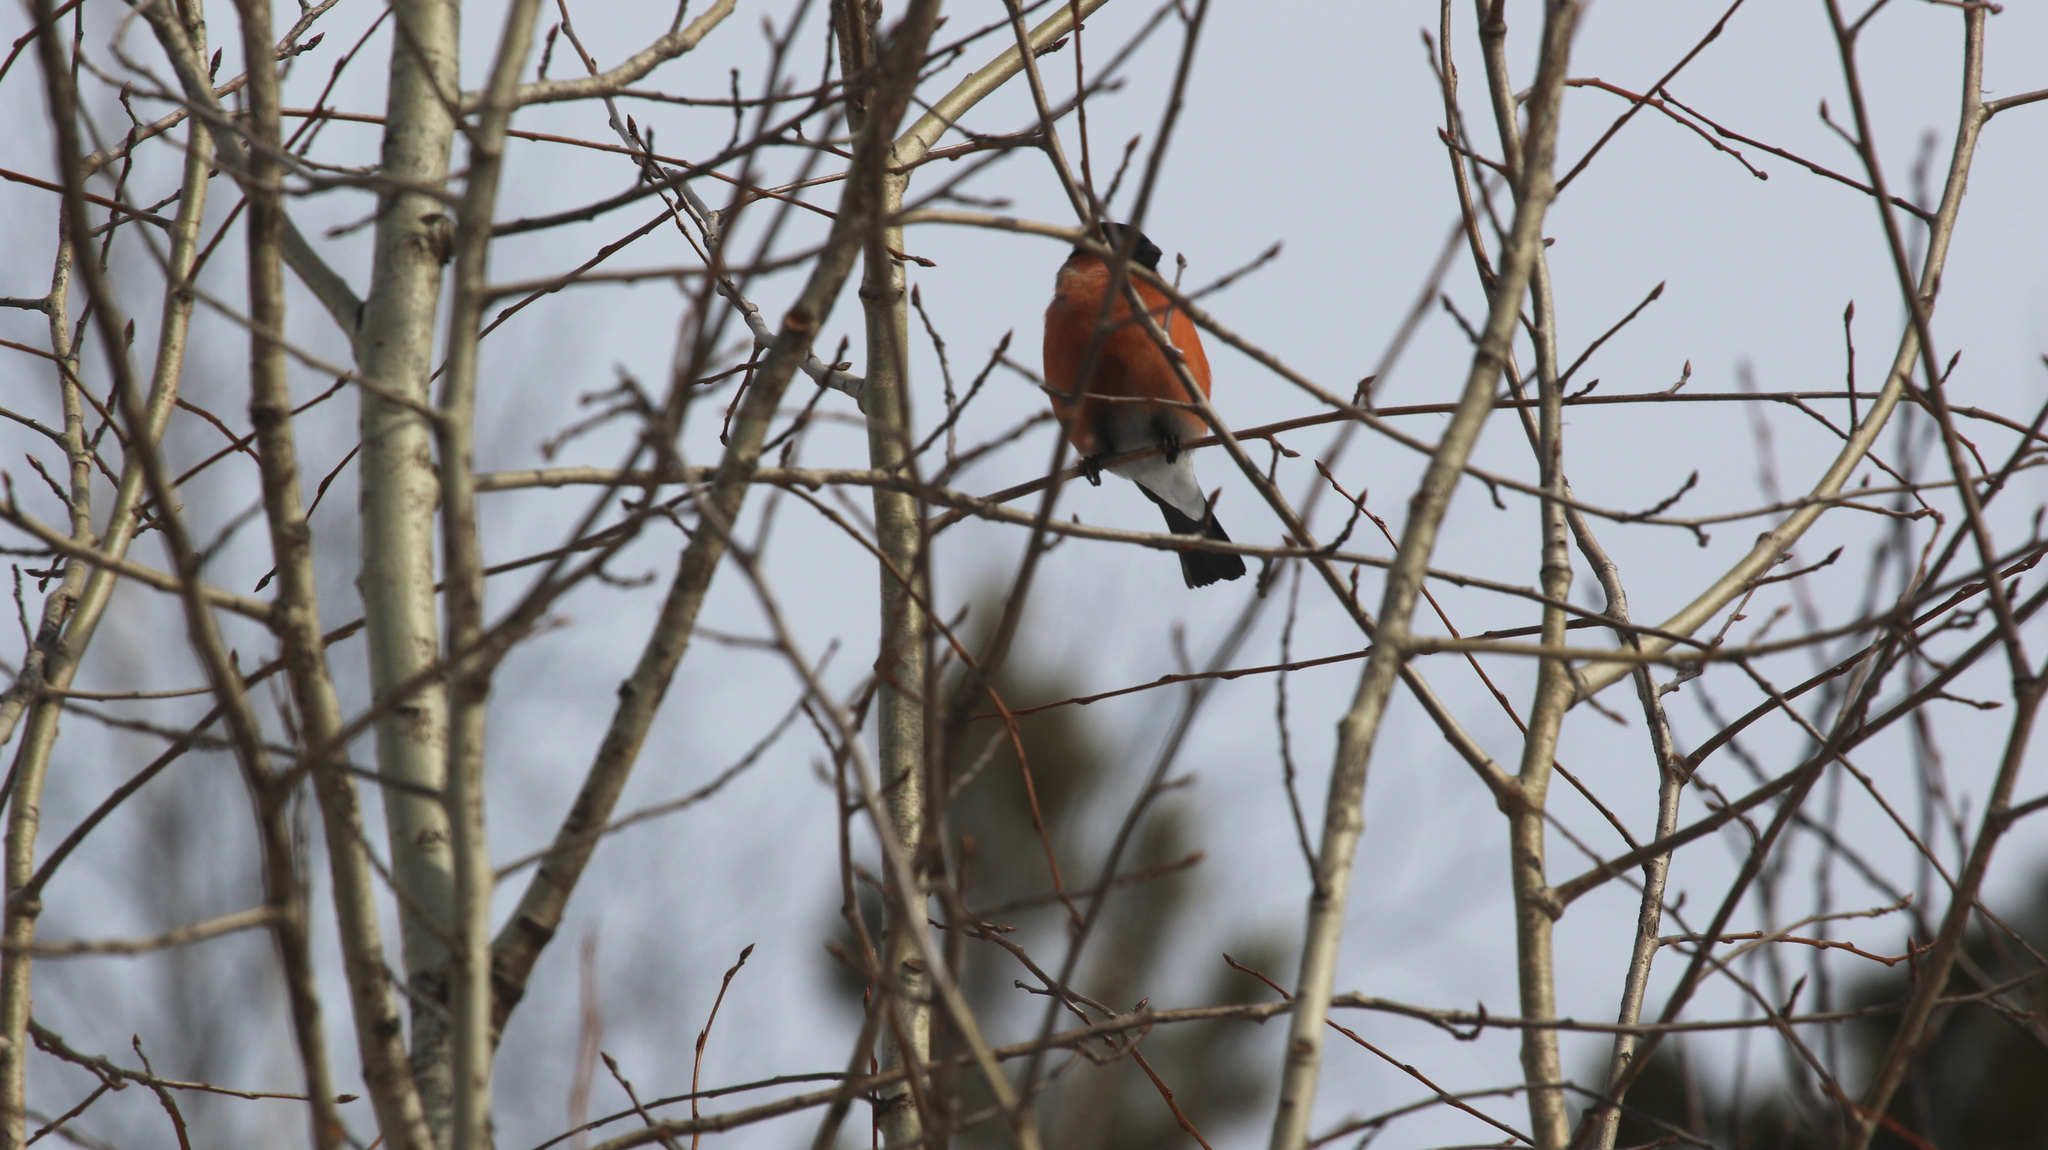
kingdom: Animalia
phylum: Chordata
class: Aves
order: Passeriformes
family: Fringillidae
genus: Pyrrhula
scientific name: Pyrrhula pyrrhula
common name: Eurasian bullfinch
